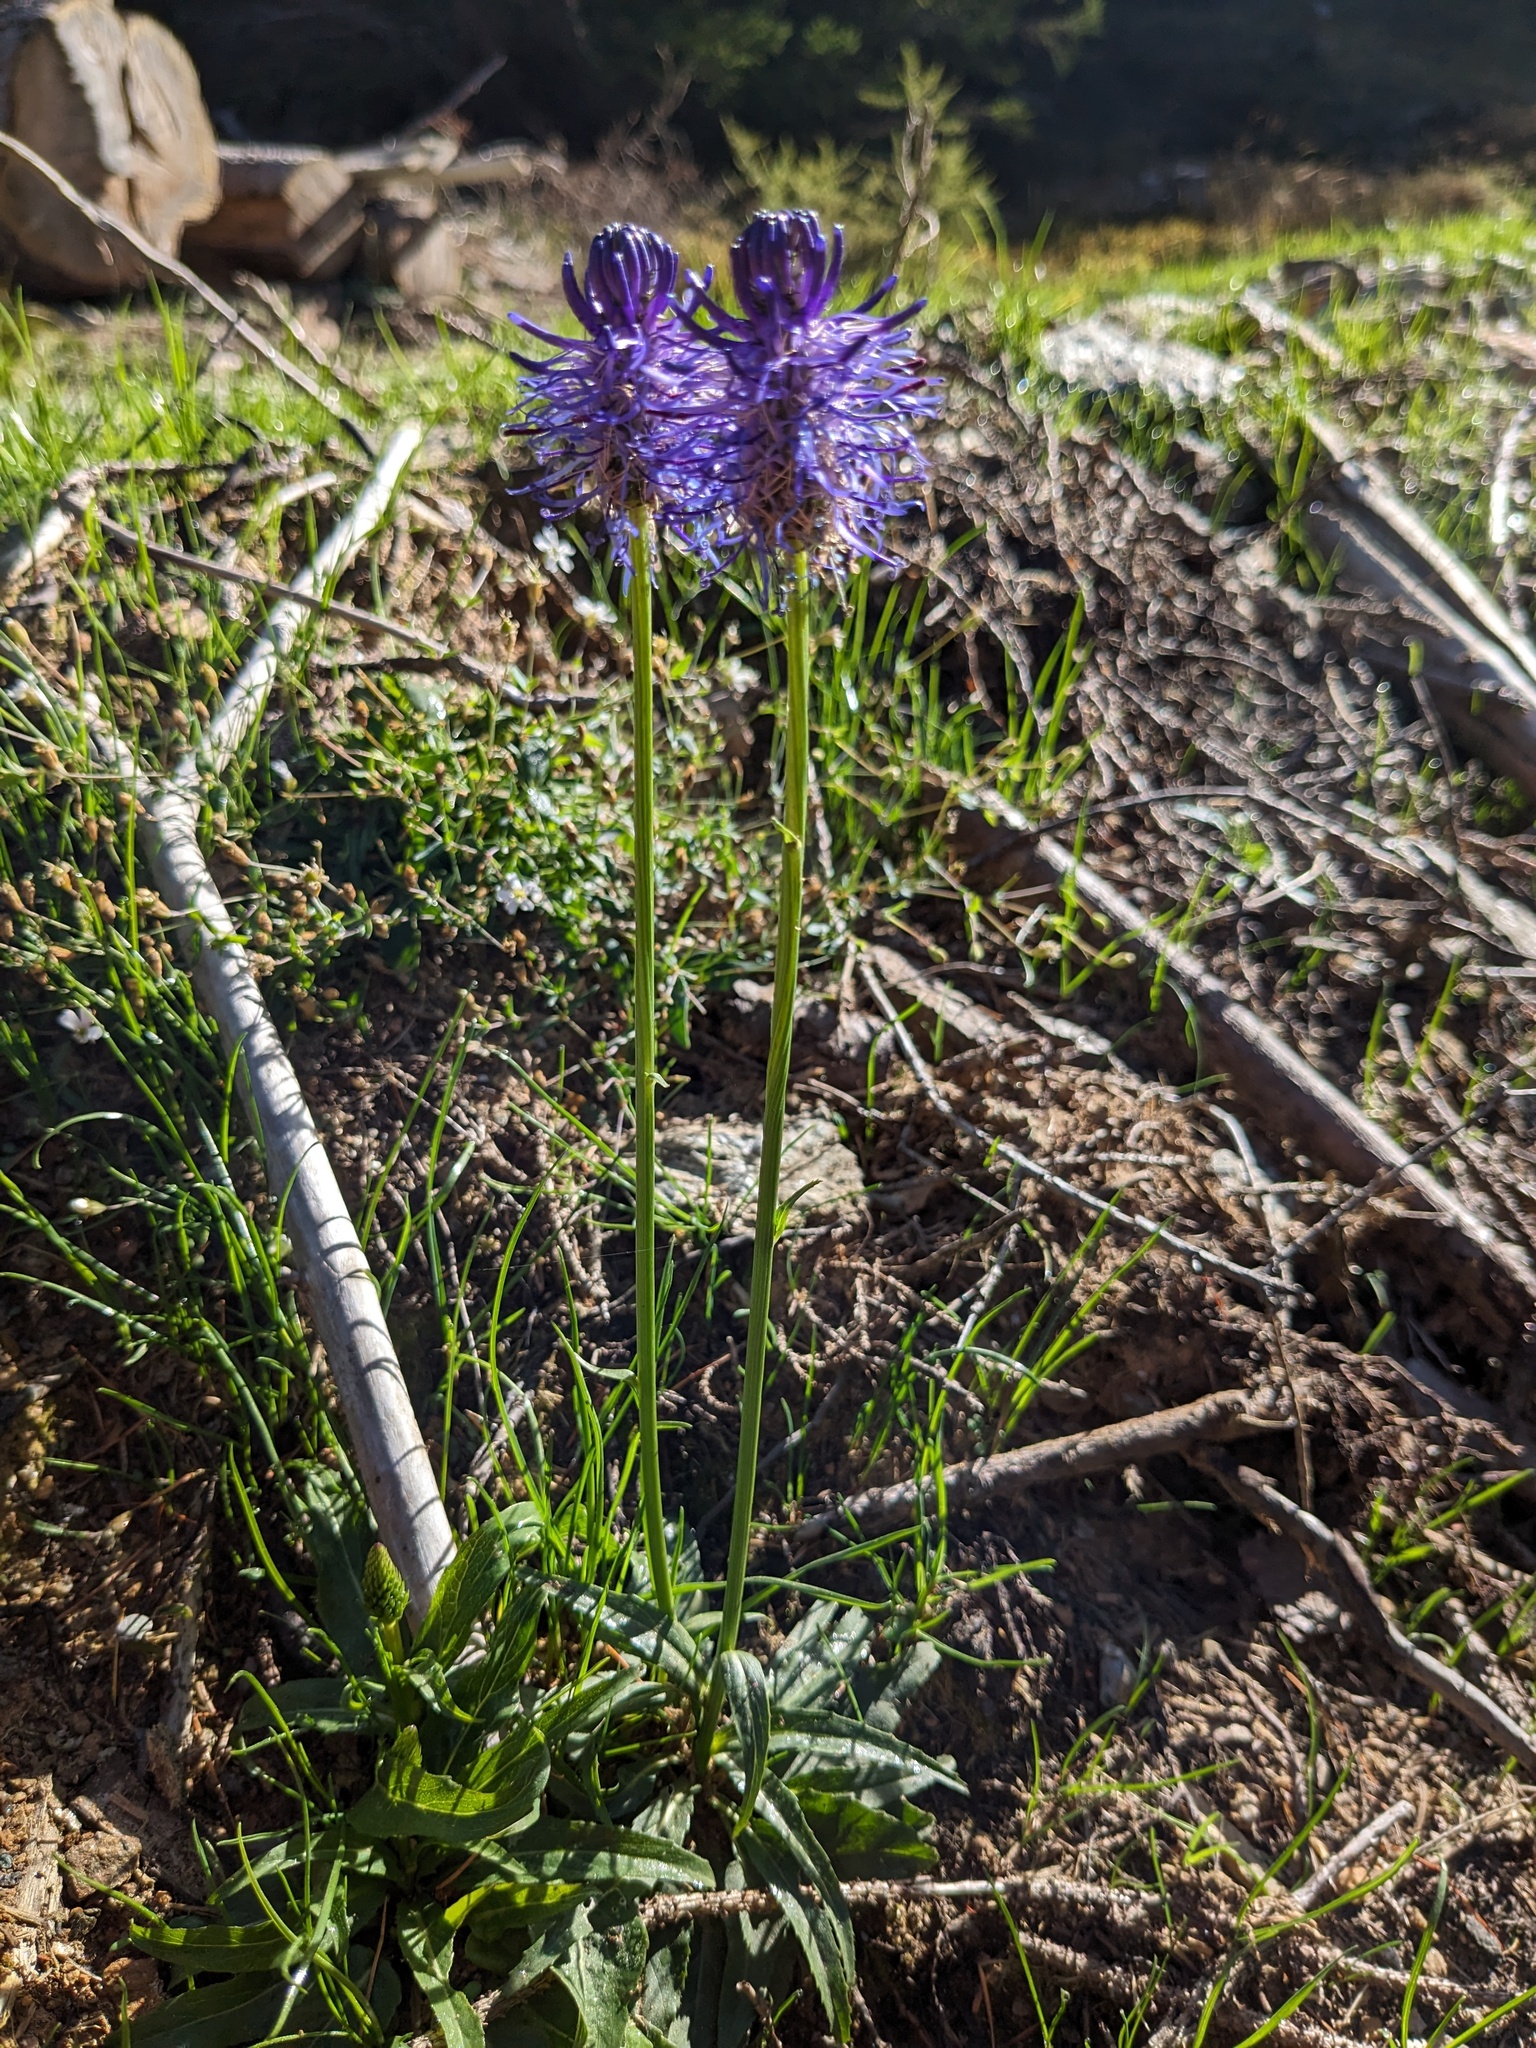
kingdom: Plantae
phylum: Tracheophyta
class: Magnoliopsida
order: Asterales
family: Campanulaceae
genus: Phyteuma
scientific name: Phyteuma betonicifolium
